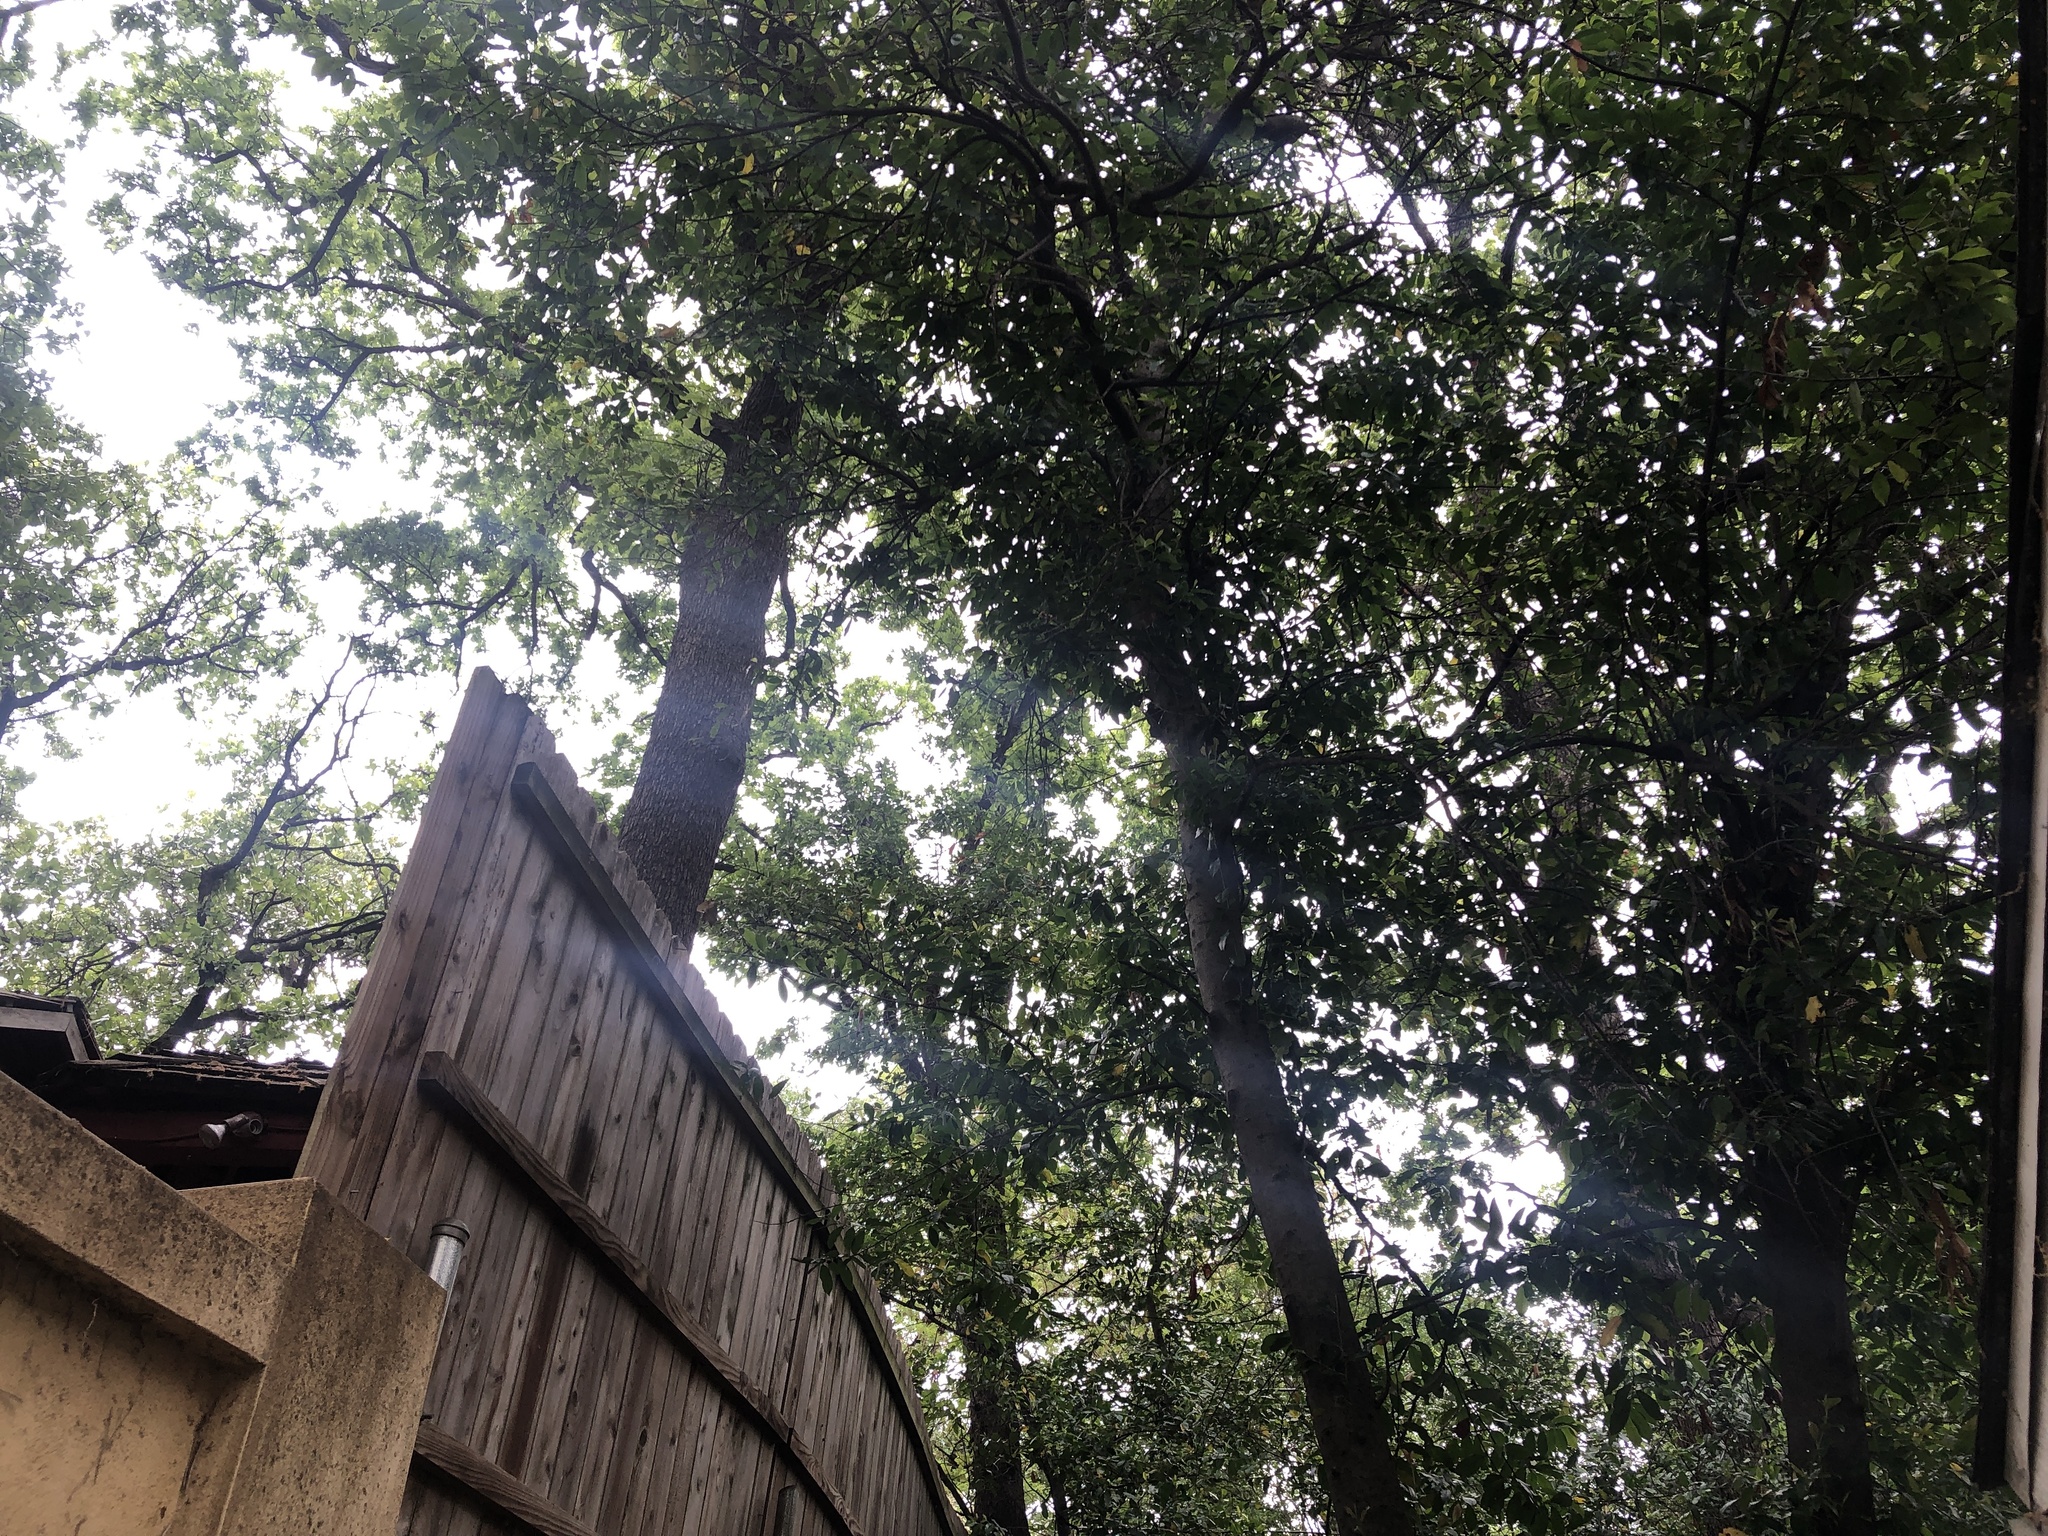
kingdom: Animalia
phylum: Chordata
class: Aves
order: Passeriformes
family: Tyrannidae
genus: Myiarchus
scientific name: Myiarchus crinitus
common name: Great crested flycatcher
